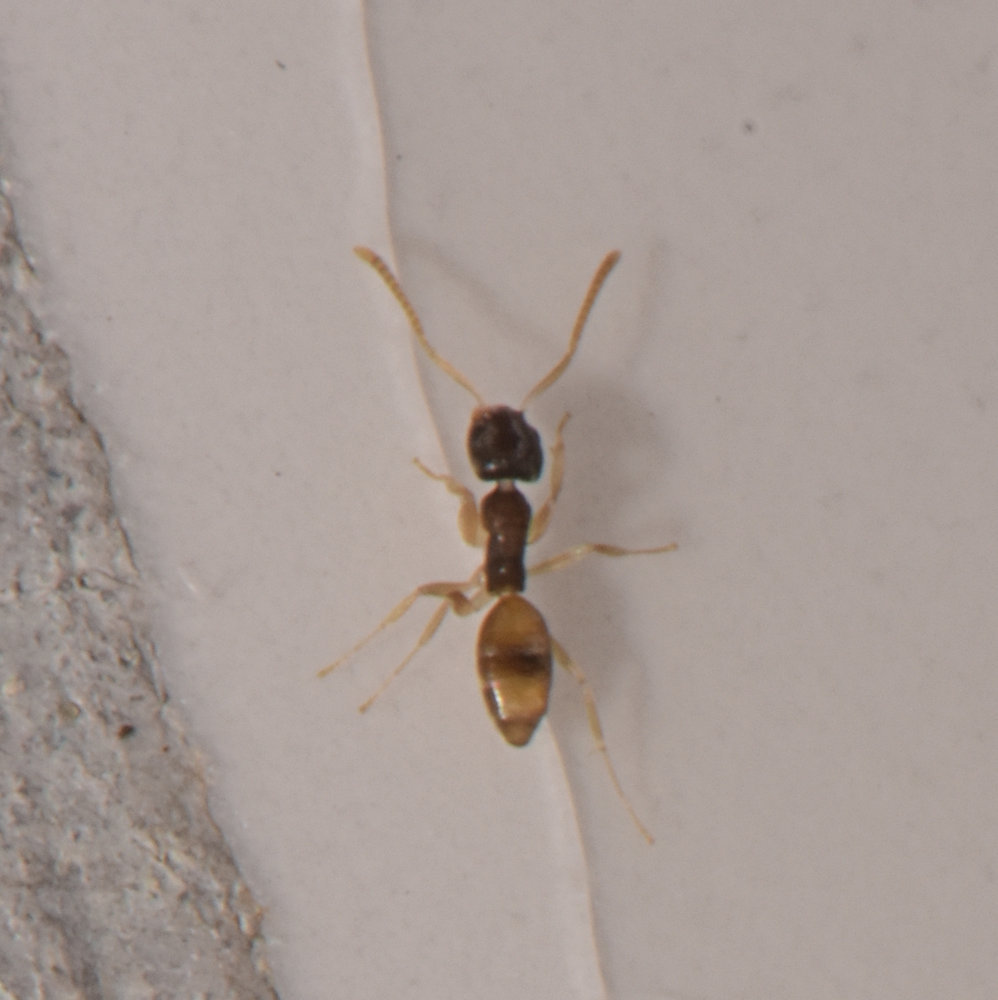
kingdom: Animalia
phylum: Arthropoda
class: Insecta
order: Hymenoptera
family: Formicidae
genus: Tapinoma
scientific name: Tapinoma melanocephalum
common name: Ghost ant
